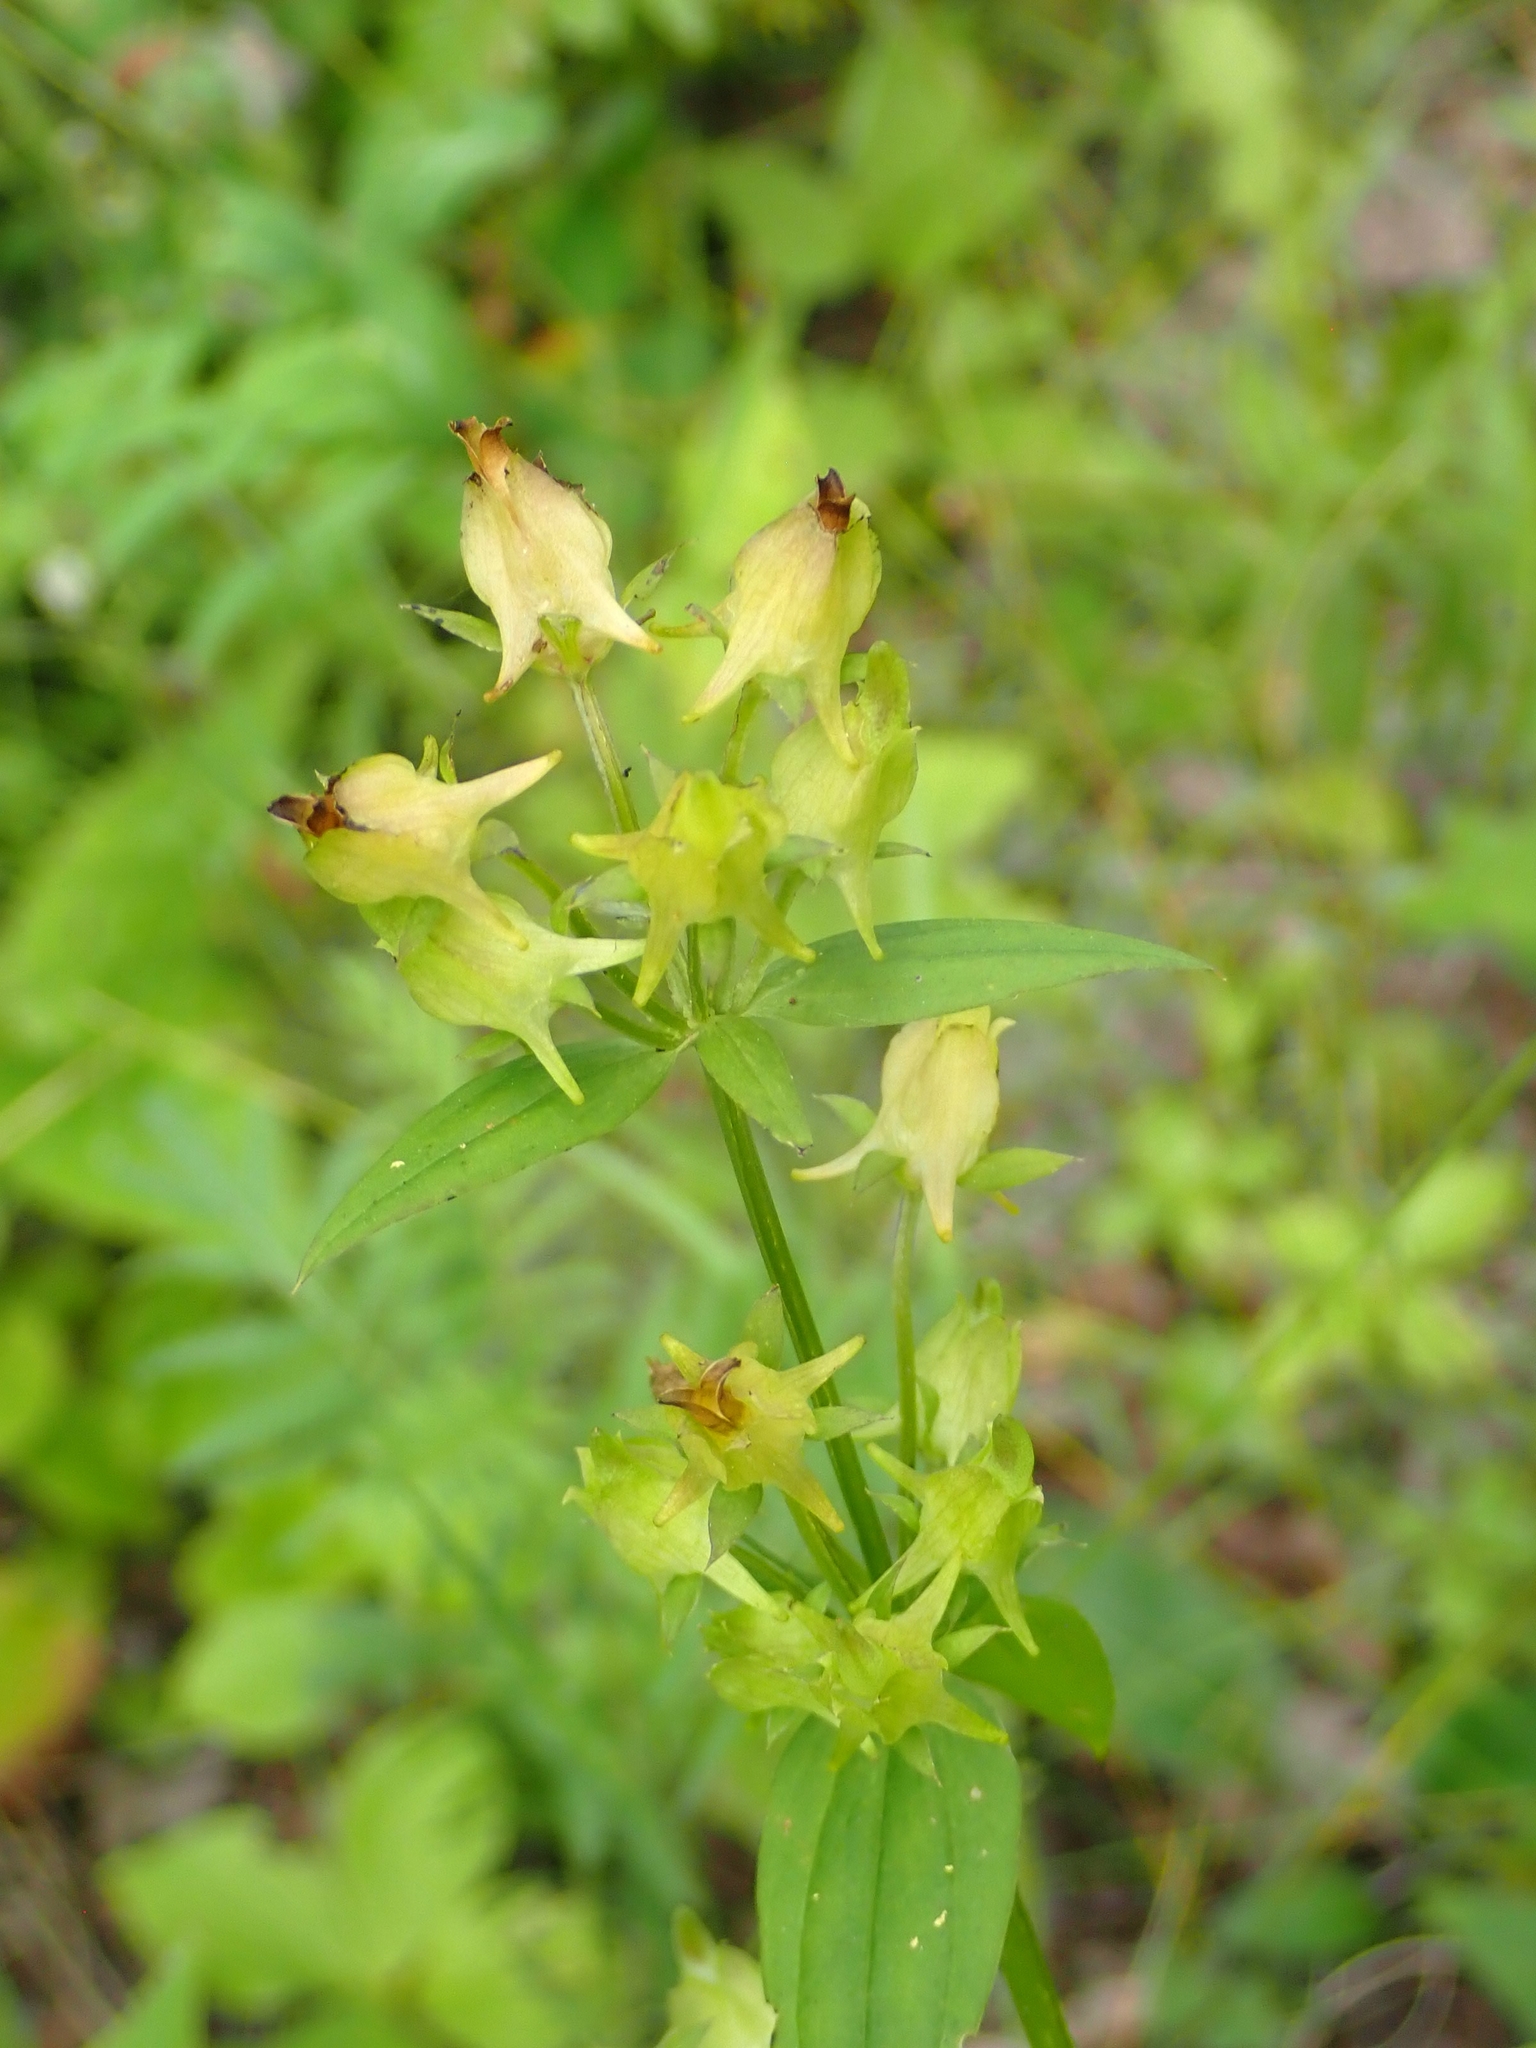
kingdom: Plantae
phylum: Tracheophyta
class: Magnoliopsida
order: Gentianales
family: Gentianaceae
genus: Halenia
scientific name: Halenia deflexa
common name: American spurred gentian
